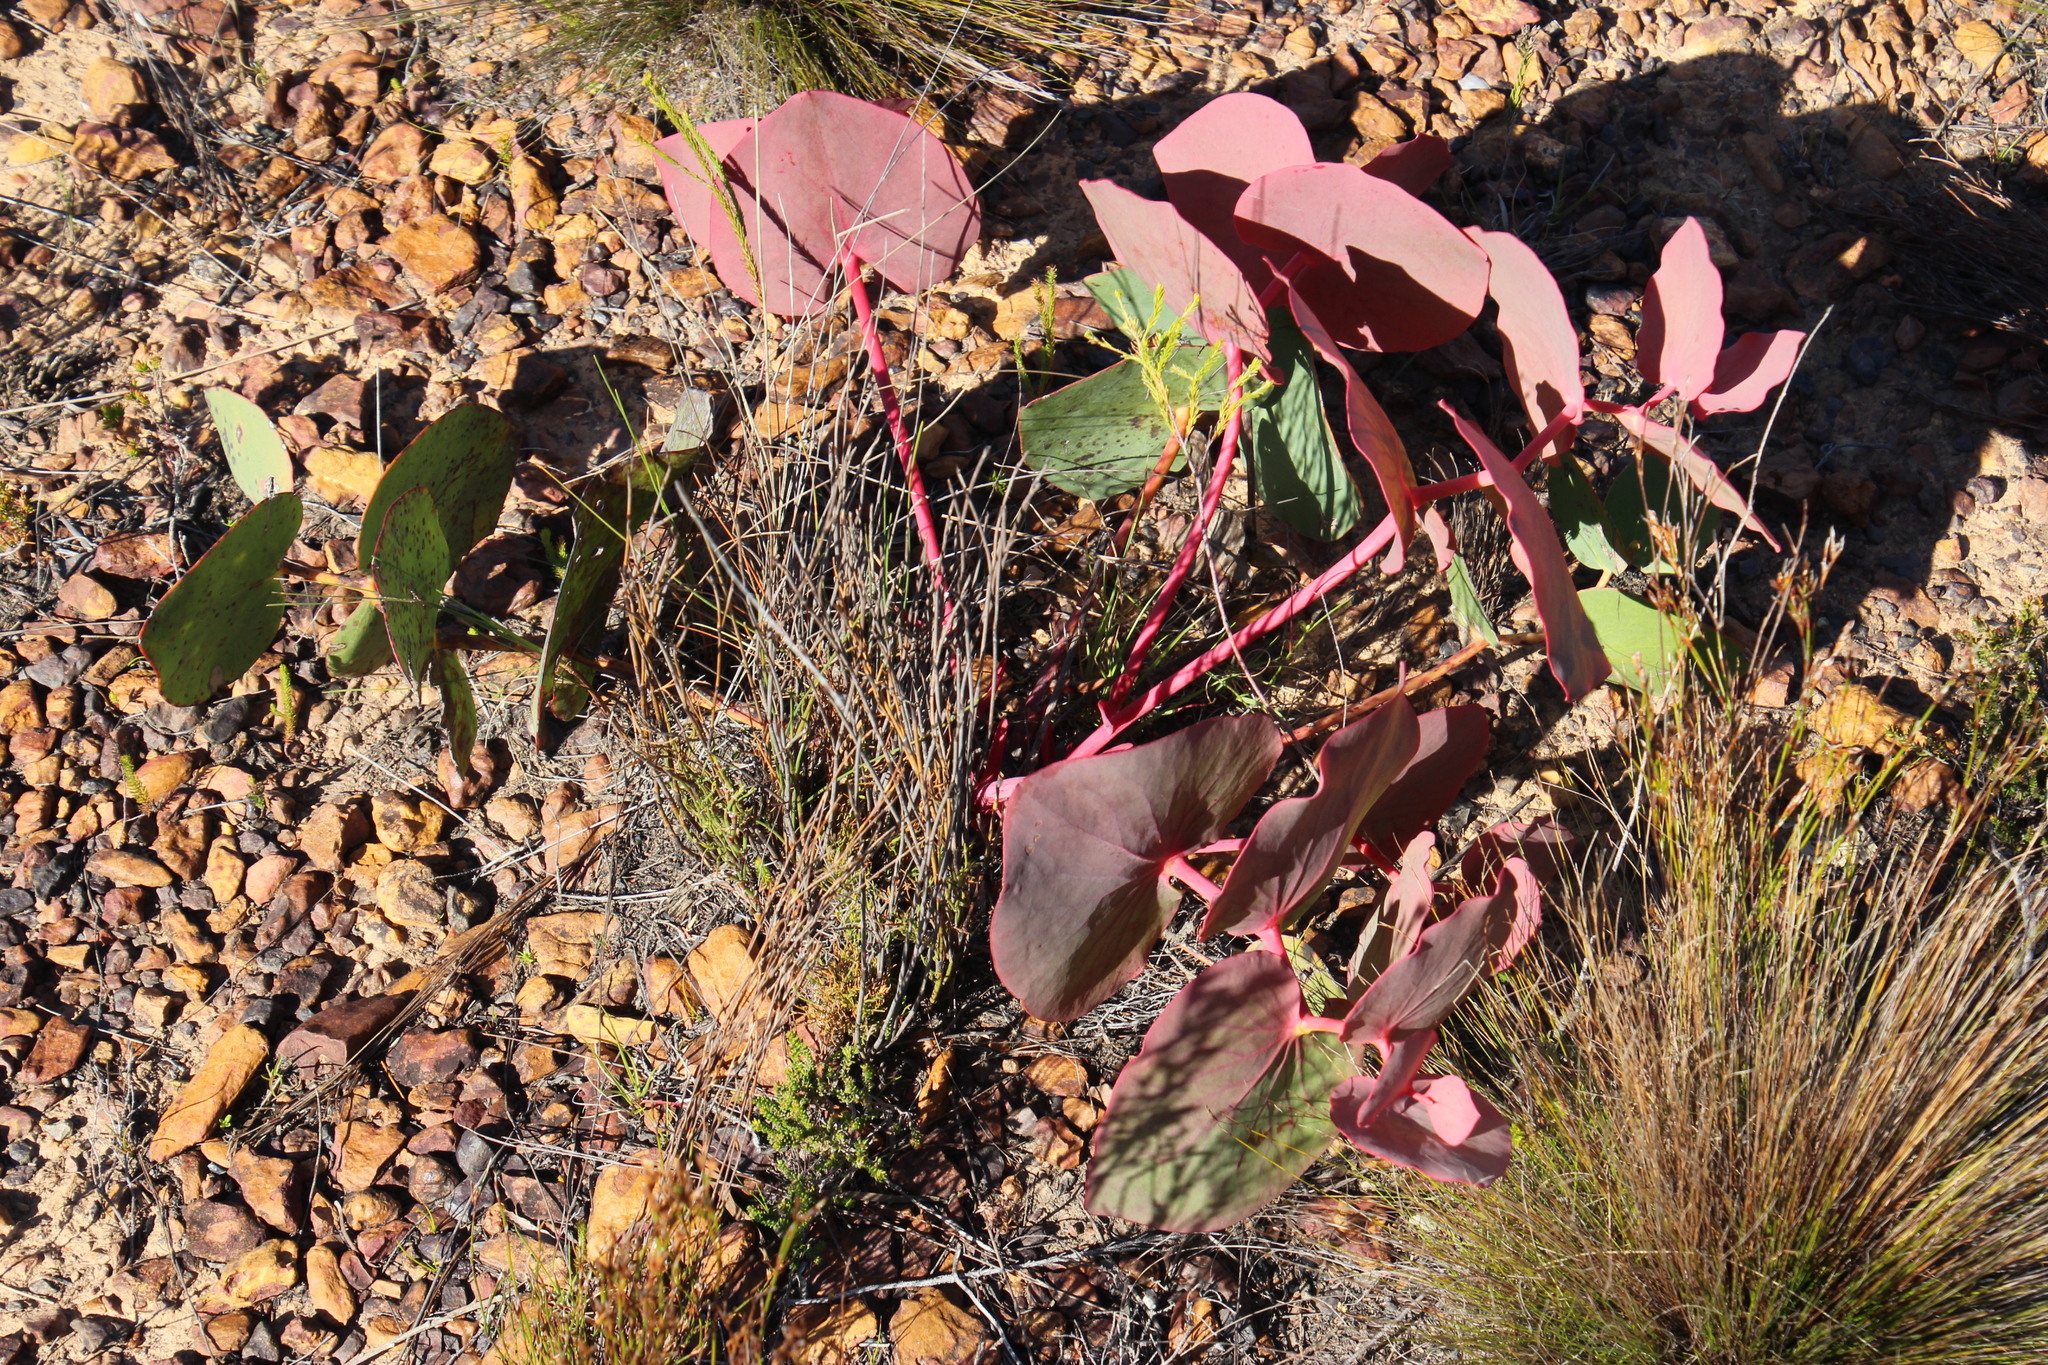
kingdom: Plantae
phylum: Tracheophyta
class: Magnoliopsida
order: Proteales
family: Proteaceae
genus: Protea
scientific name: Protea cordata
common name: Heart-leaf sugarbush
